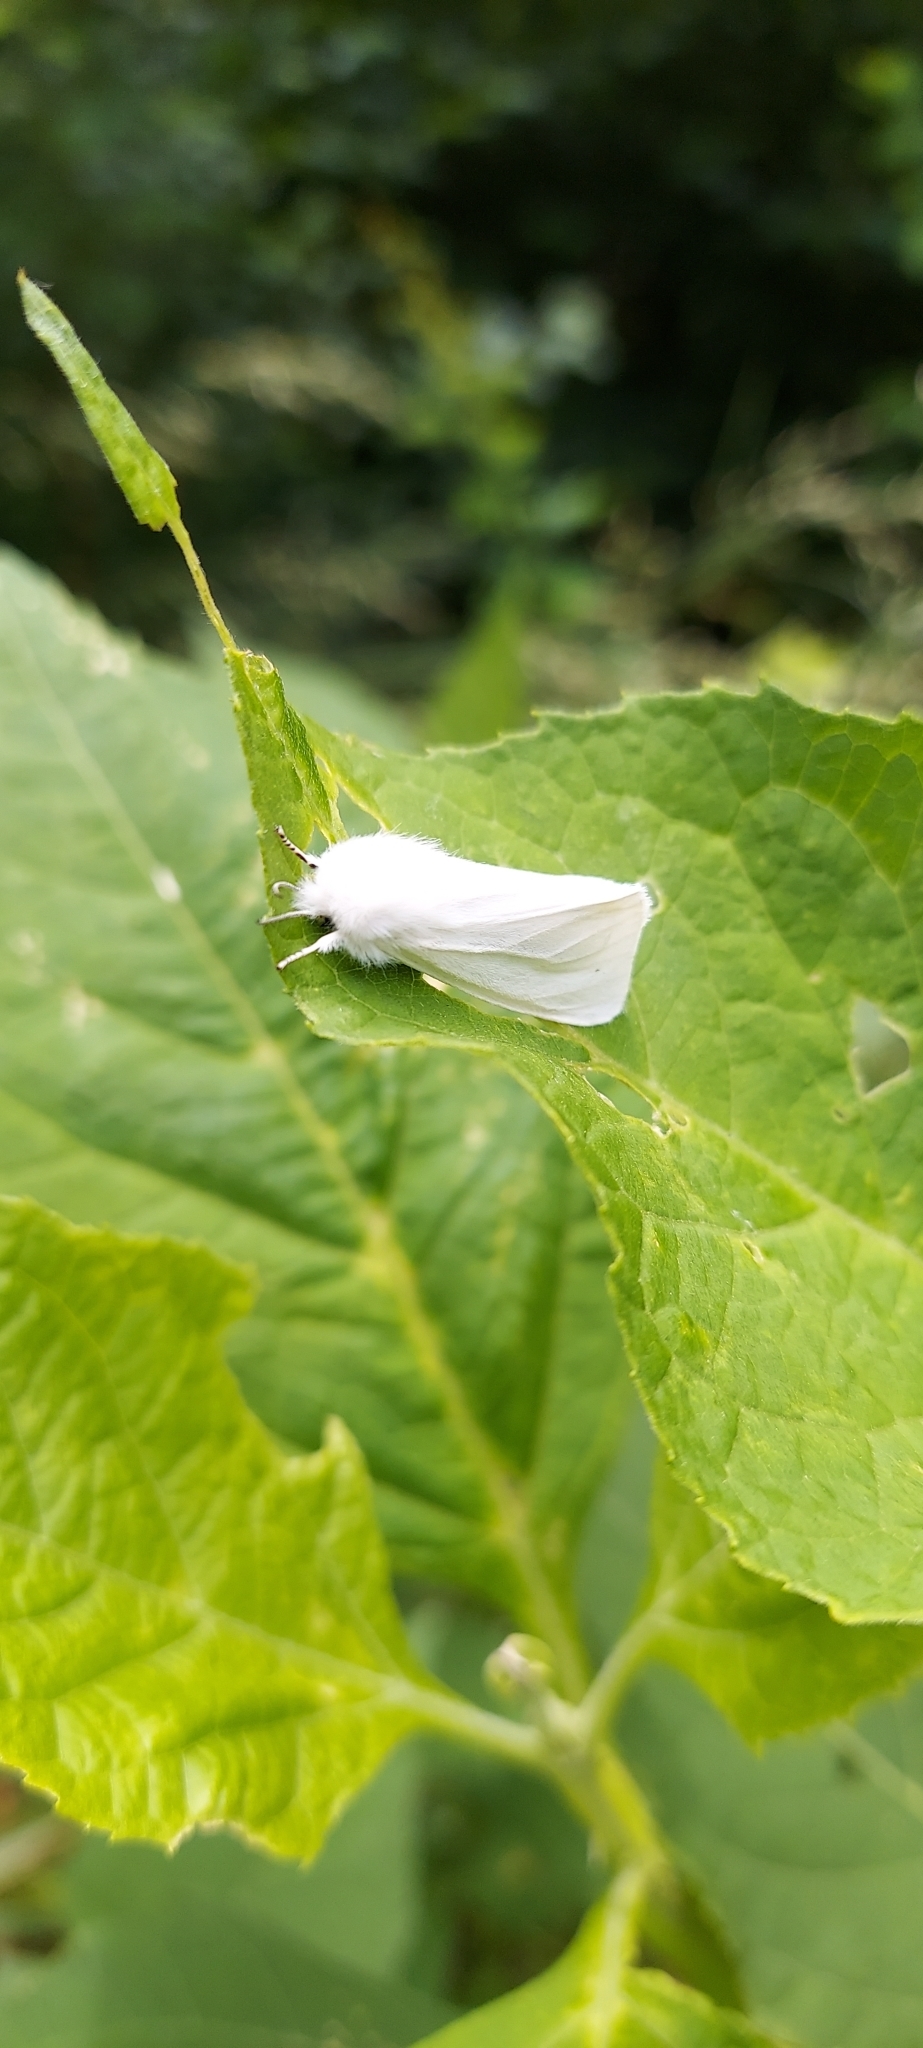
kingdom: Animalia
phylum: Arthropoda
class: Insecta
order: Lepidoptera
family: Erebidae
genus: Spilosoma
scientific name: Spilosoma virginica
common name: Virginia tiger moth
